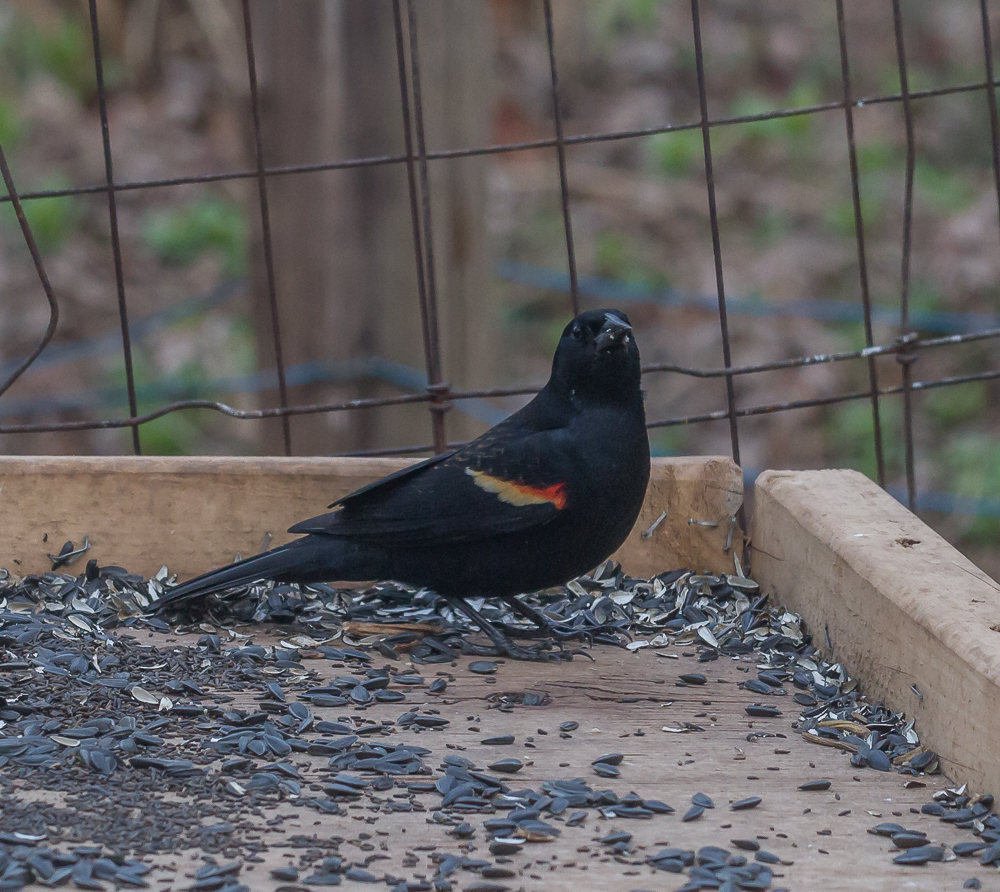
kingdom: Animalia
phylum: Chordata
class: Aves
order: Passeriformes
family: Icteridae
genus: Agelaius
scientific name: Agelaius phoeniceus
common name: Red-winged blackbird
